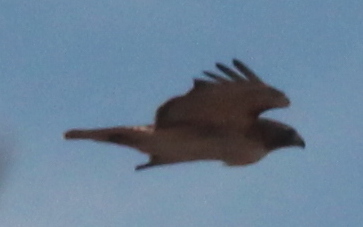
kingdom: Animalia
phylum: Chordata
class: Aves
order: Accipitriformes
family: Accipitridae
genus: Buteo
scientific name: Buteo jamaicensis
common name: Red-tailed hawk
